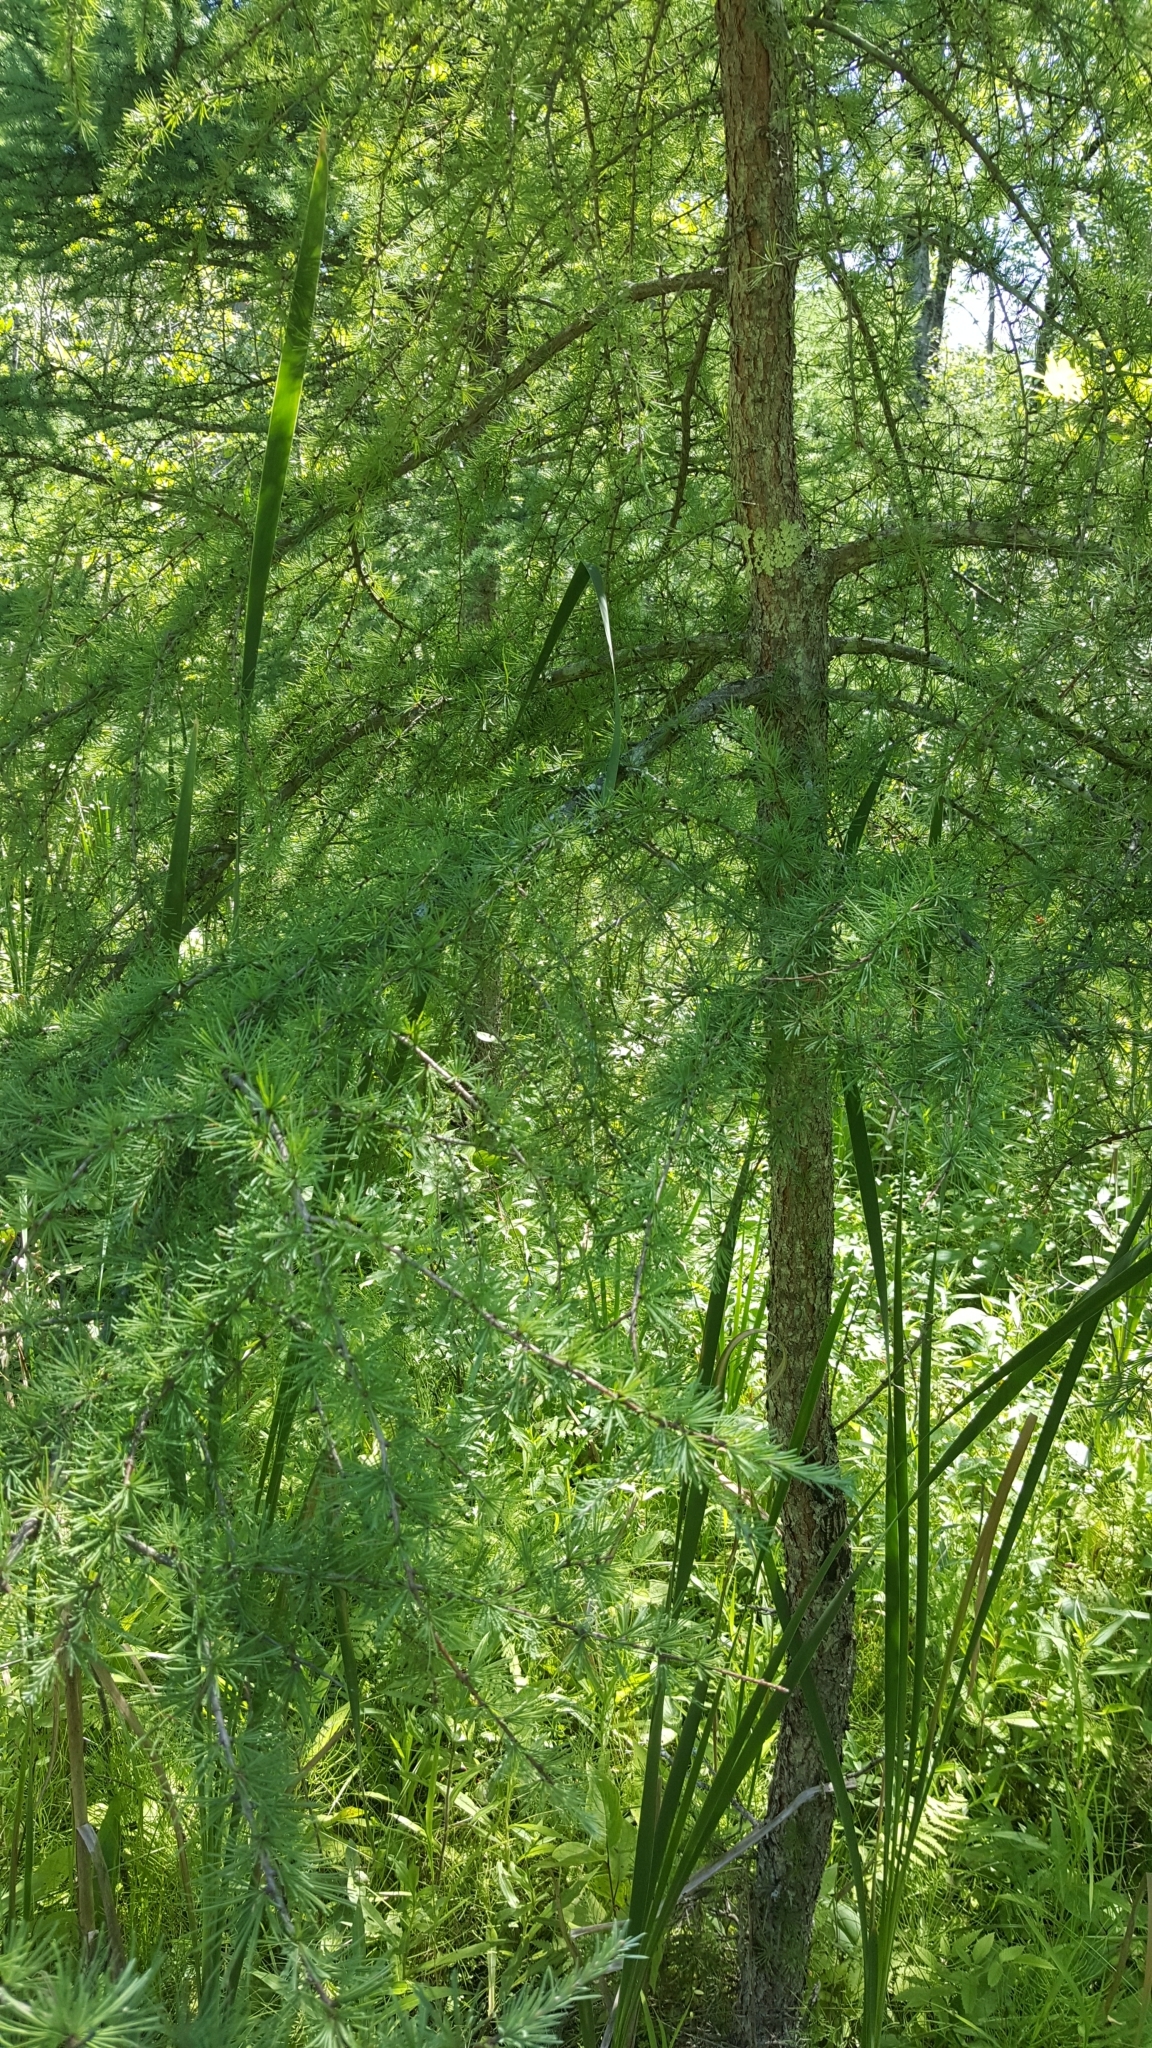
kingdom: Plantae
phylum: Tracheophyta
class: Pinopsida
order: Pinales
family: Pinaceae
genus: Larix
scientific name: Larix laricina
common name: American larch
